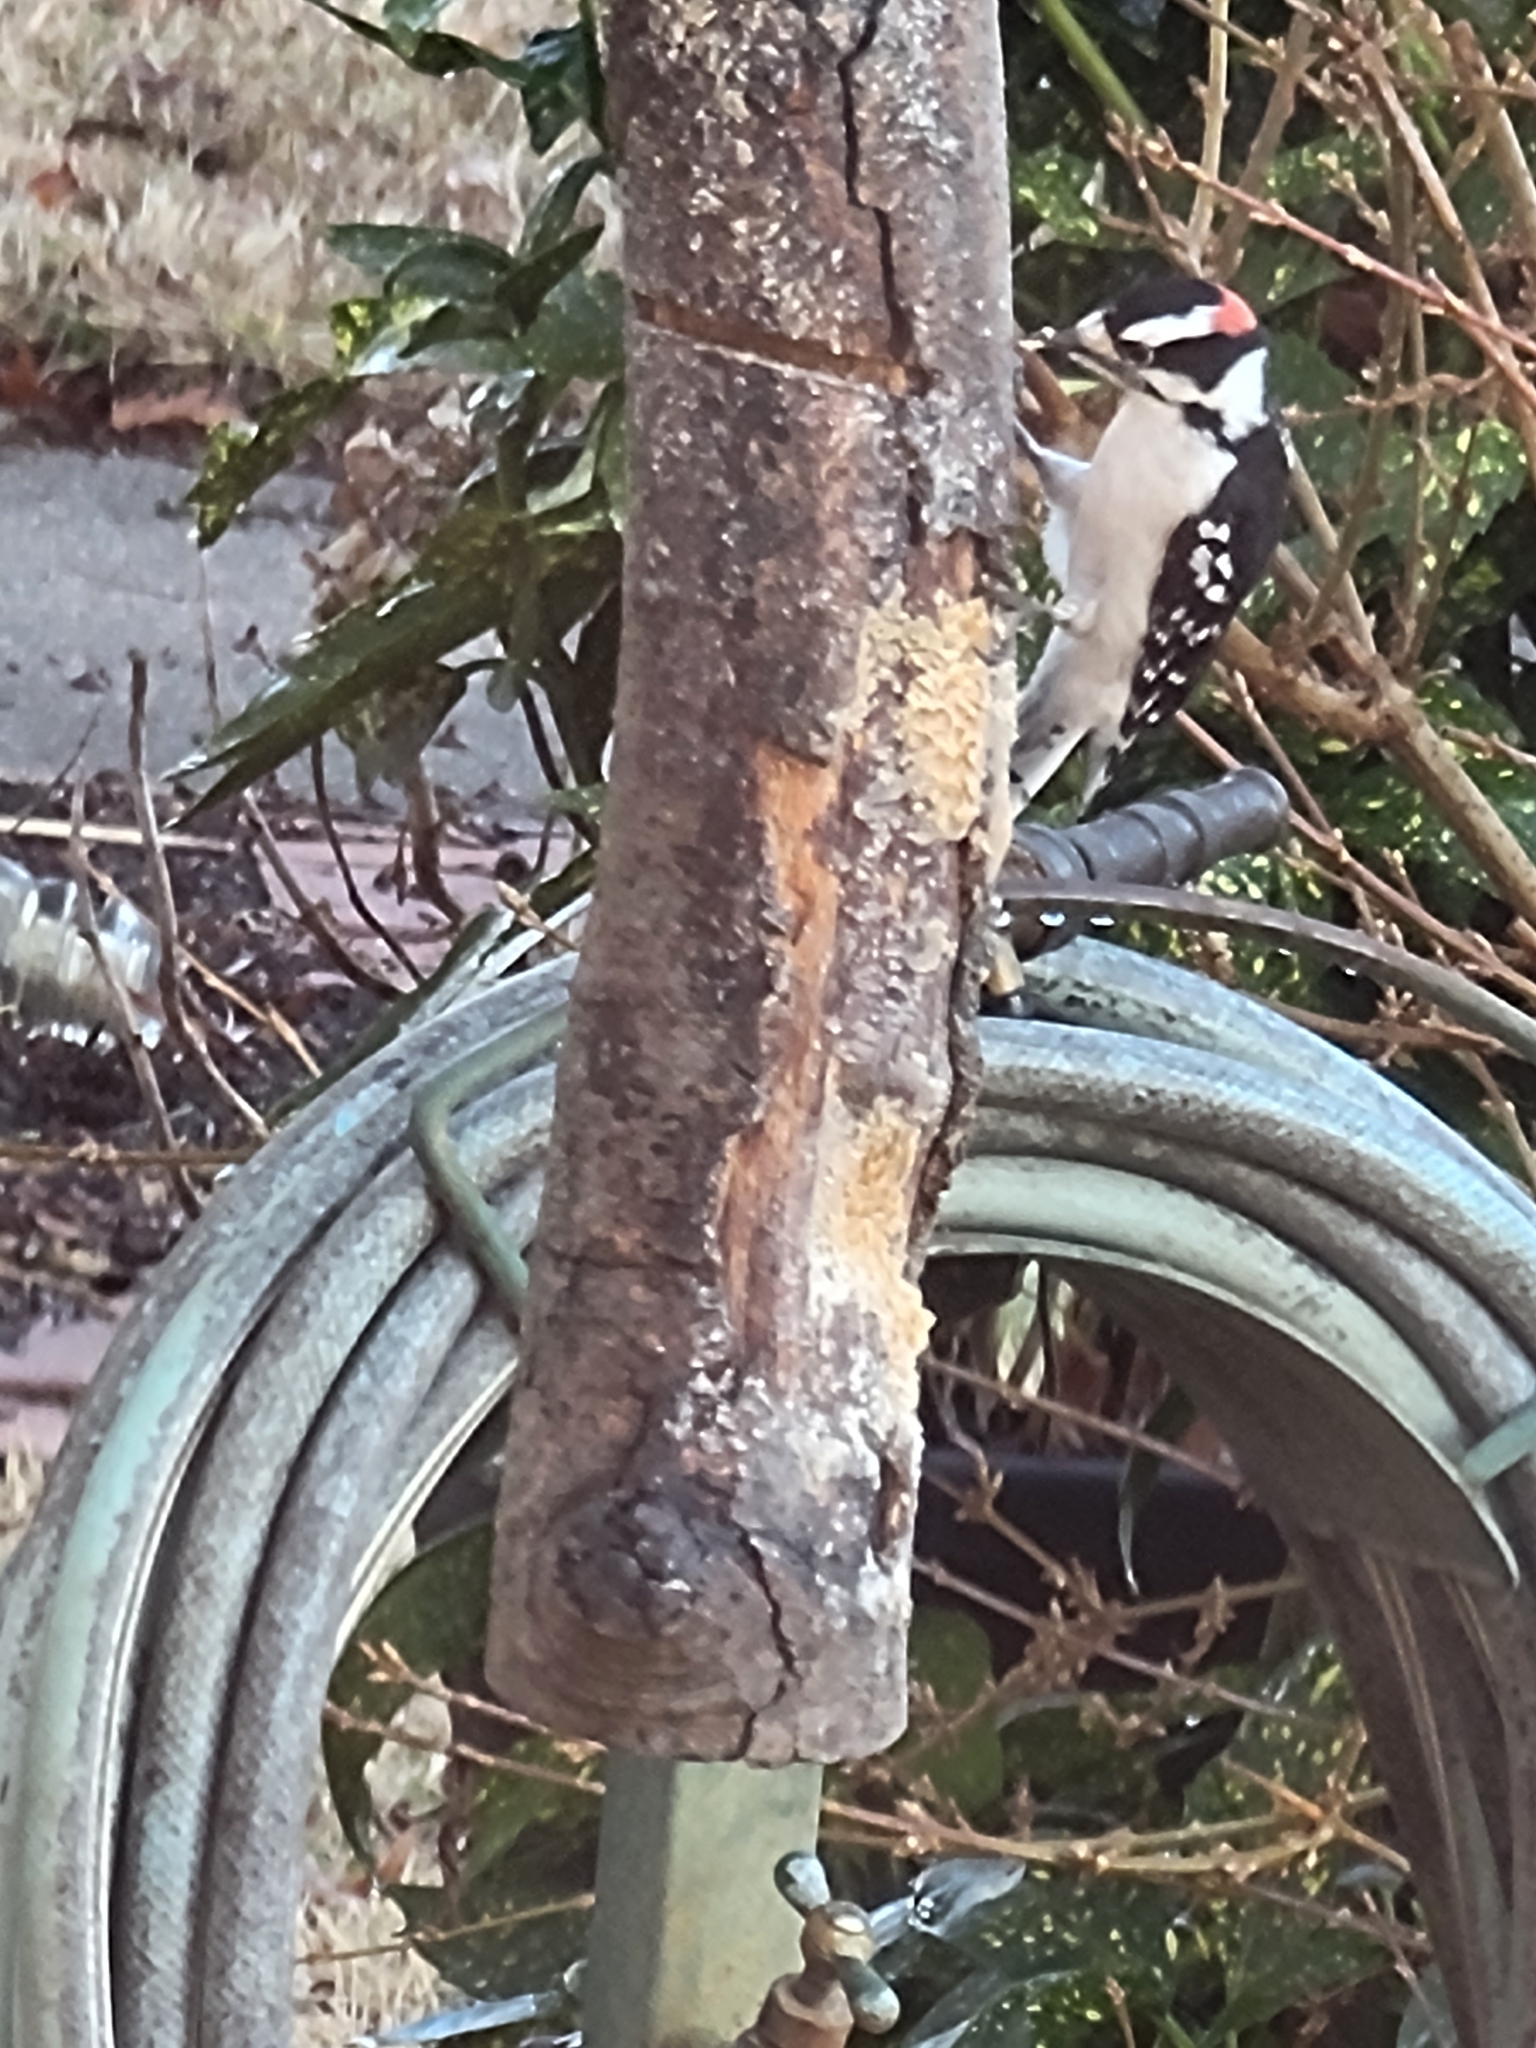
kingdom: Animalia
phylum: Chordata
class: Aves
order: Piciformes
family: Picidae
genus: Dryobates
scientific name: Dryobates pubescens
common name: Downy woodpecker
